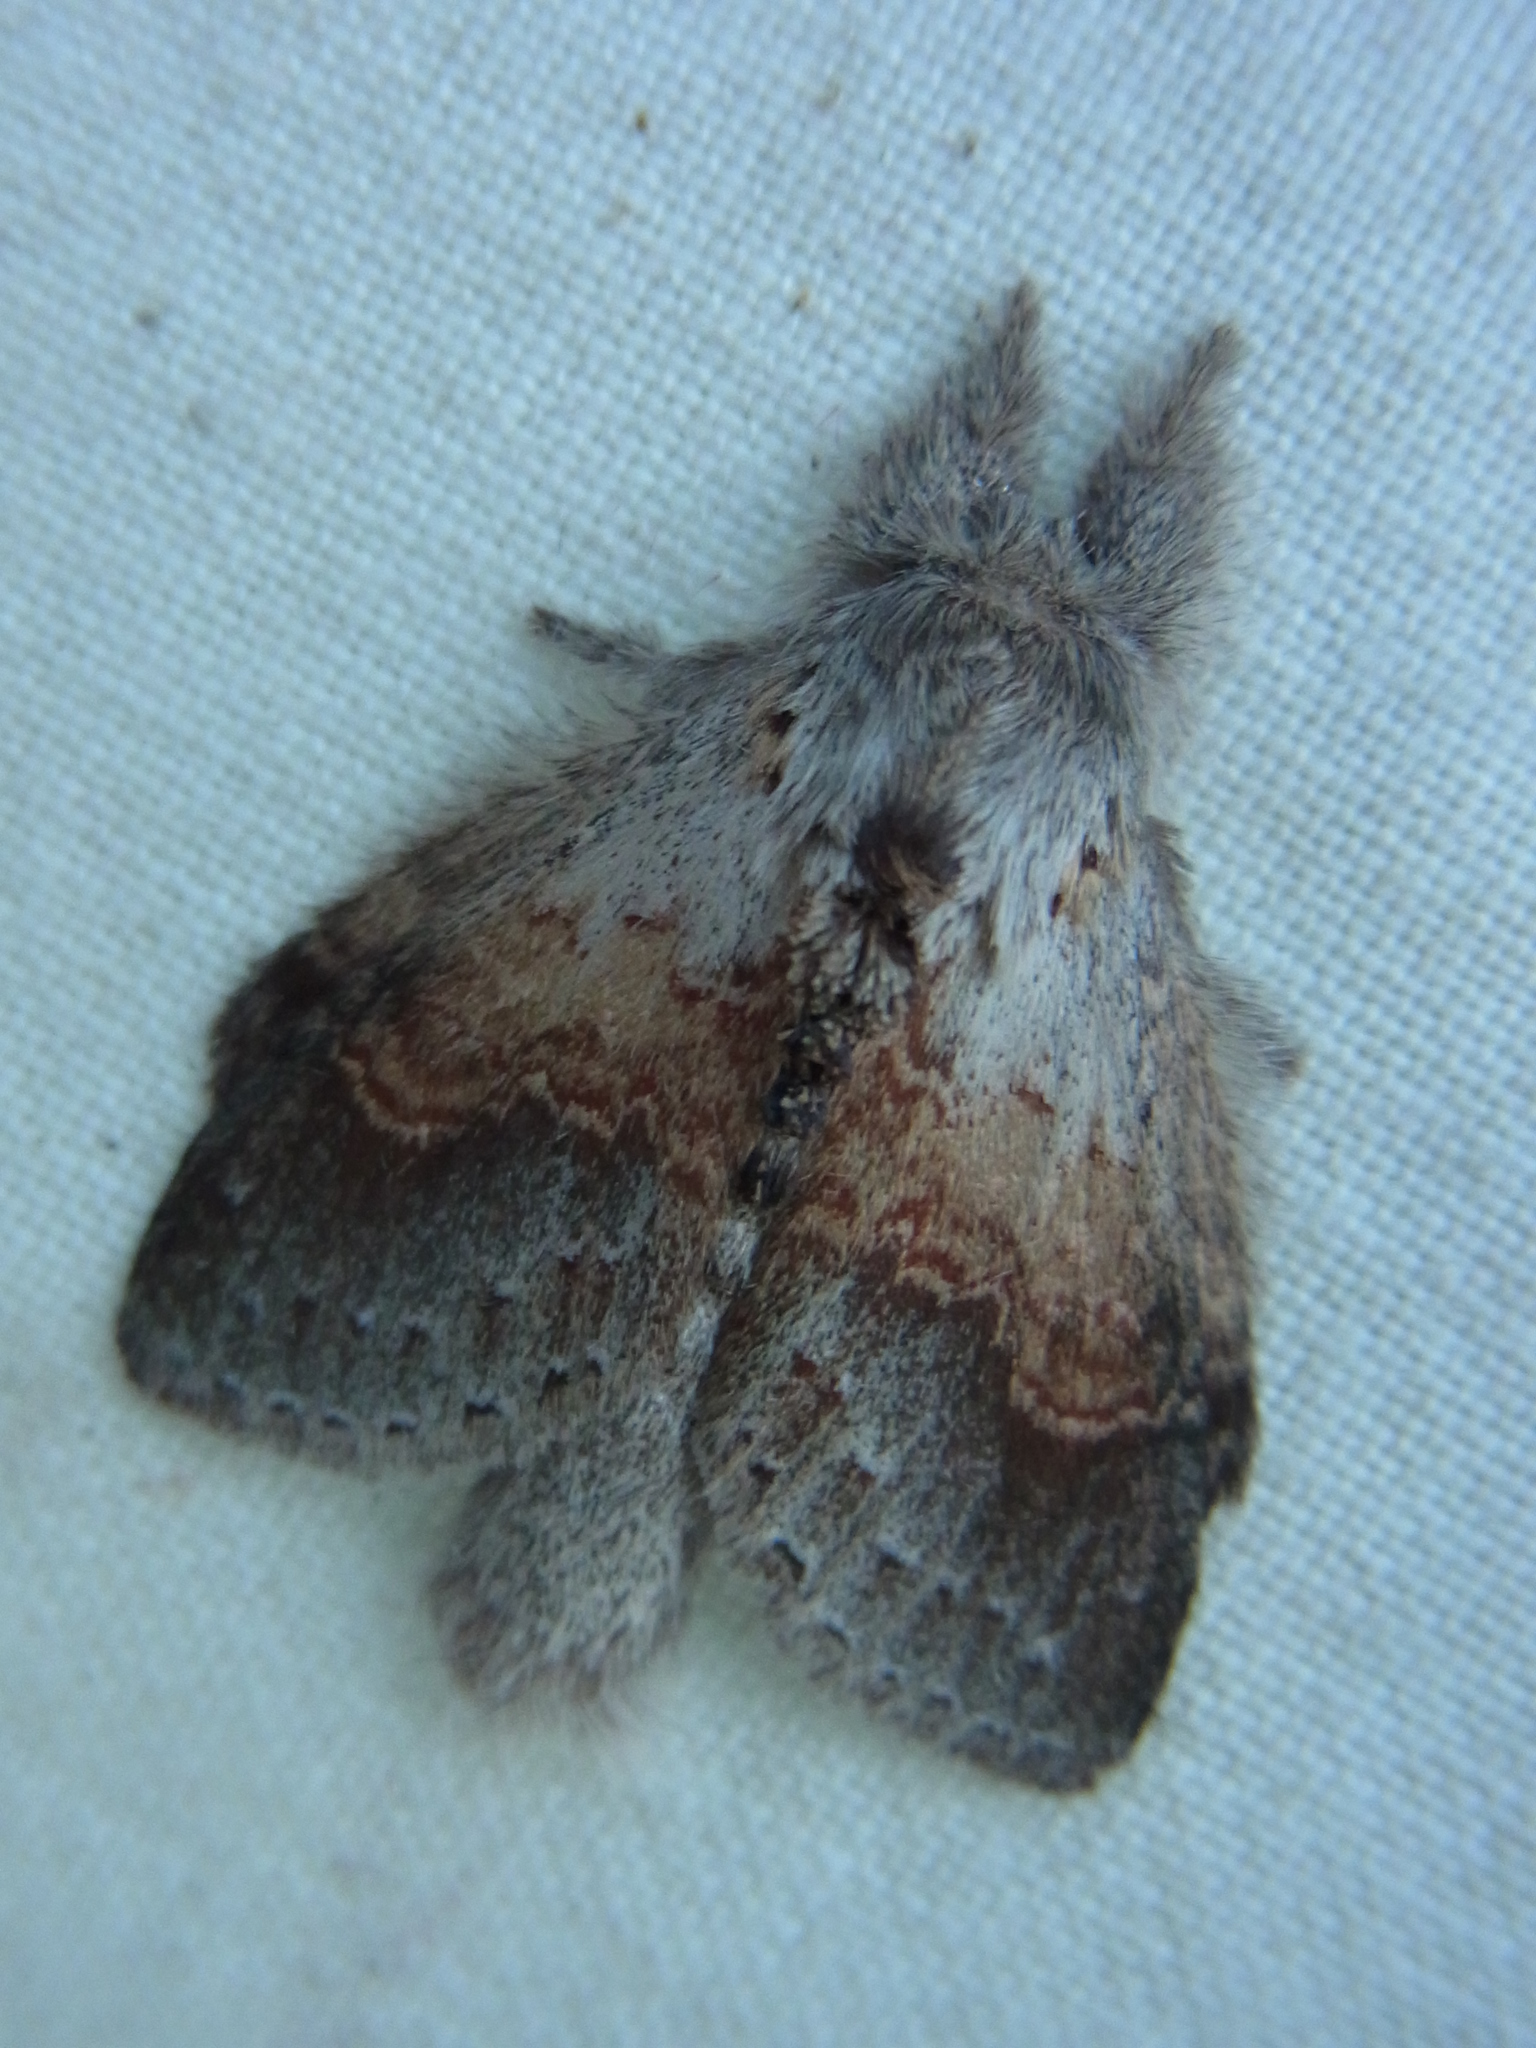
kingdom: Animalia
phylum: Arthropoda
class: Insecta
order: Lepidoptera
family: Notodontidae
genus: Stauropus
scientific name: Stauropus basalis
